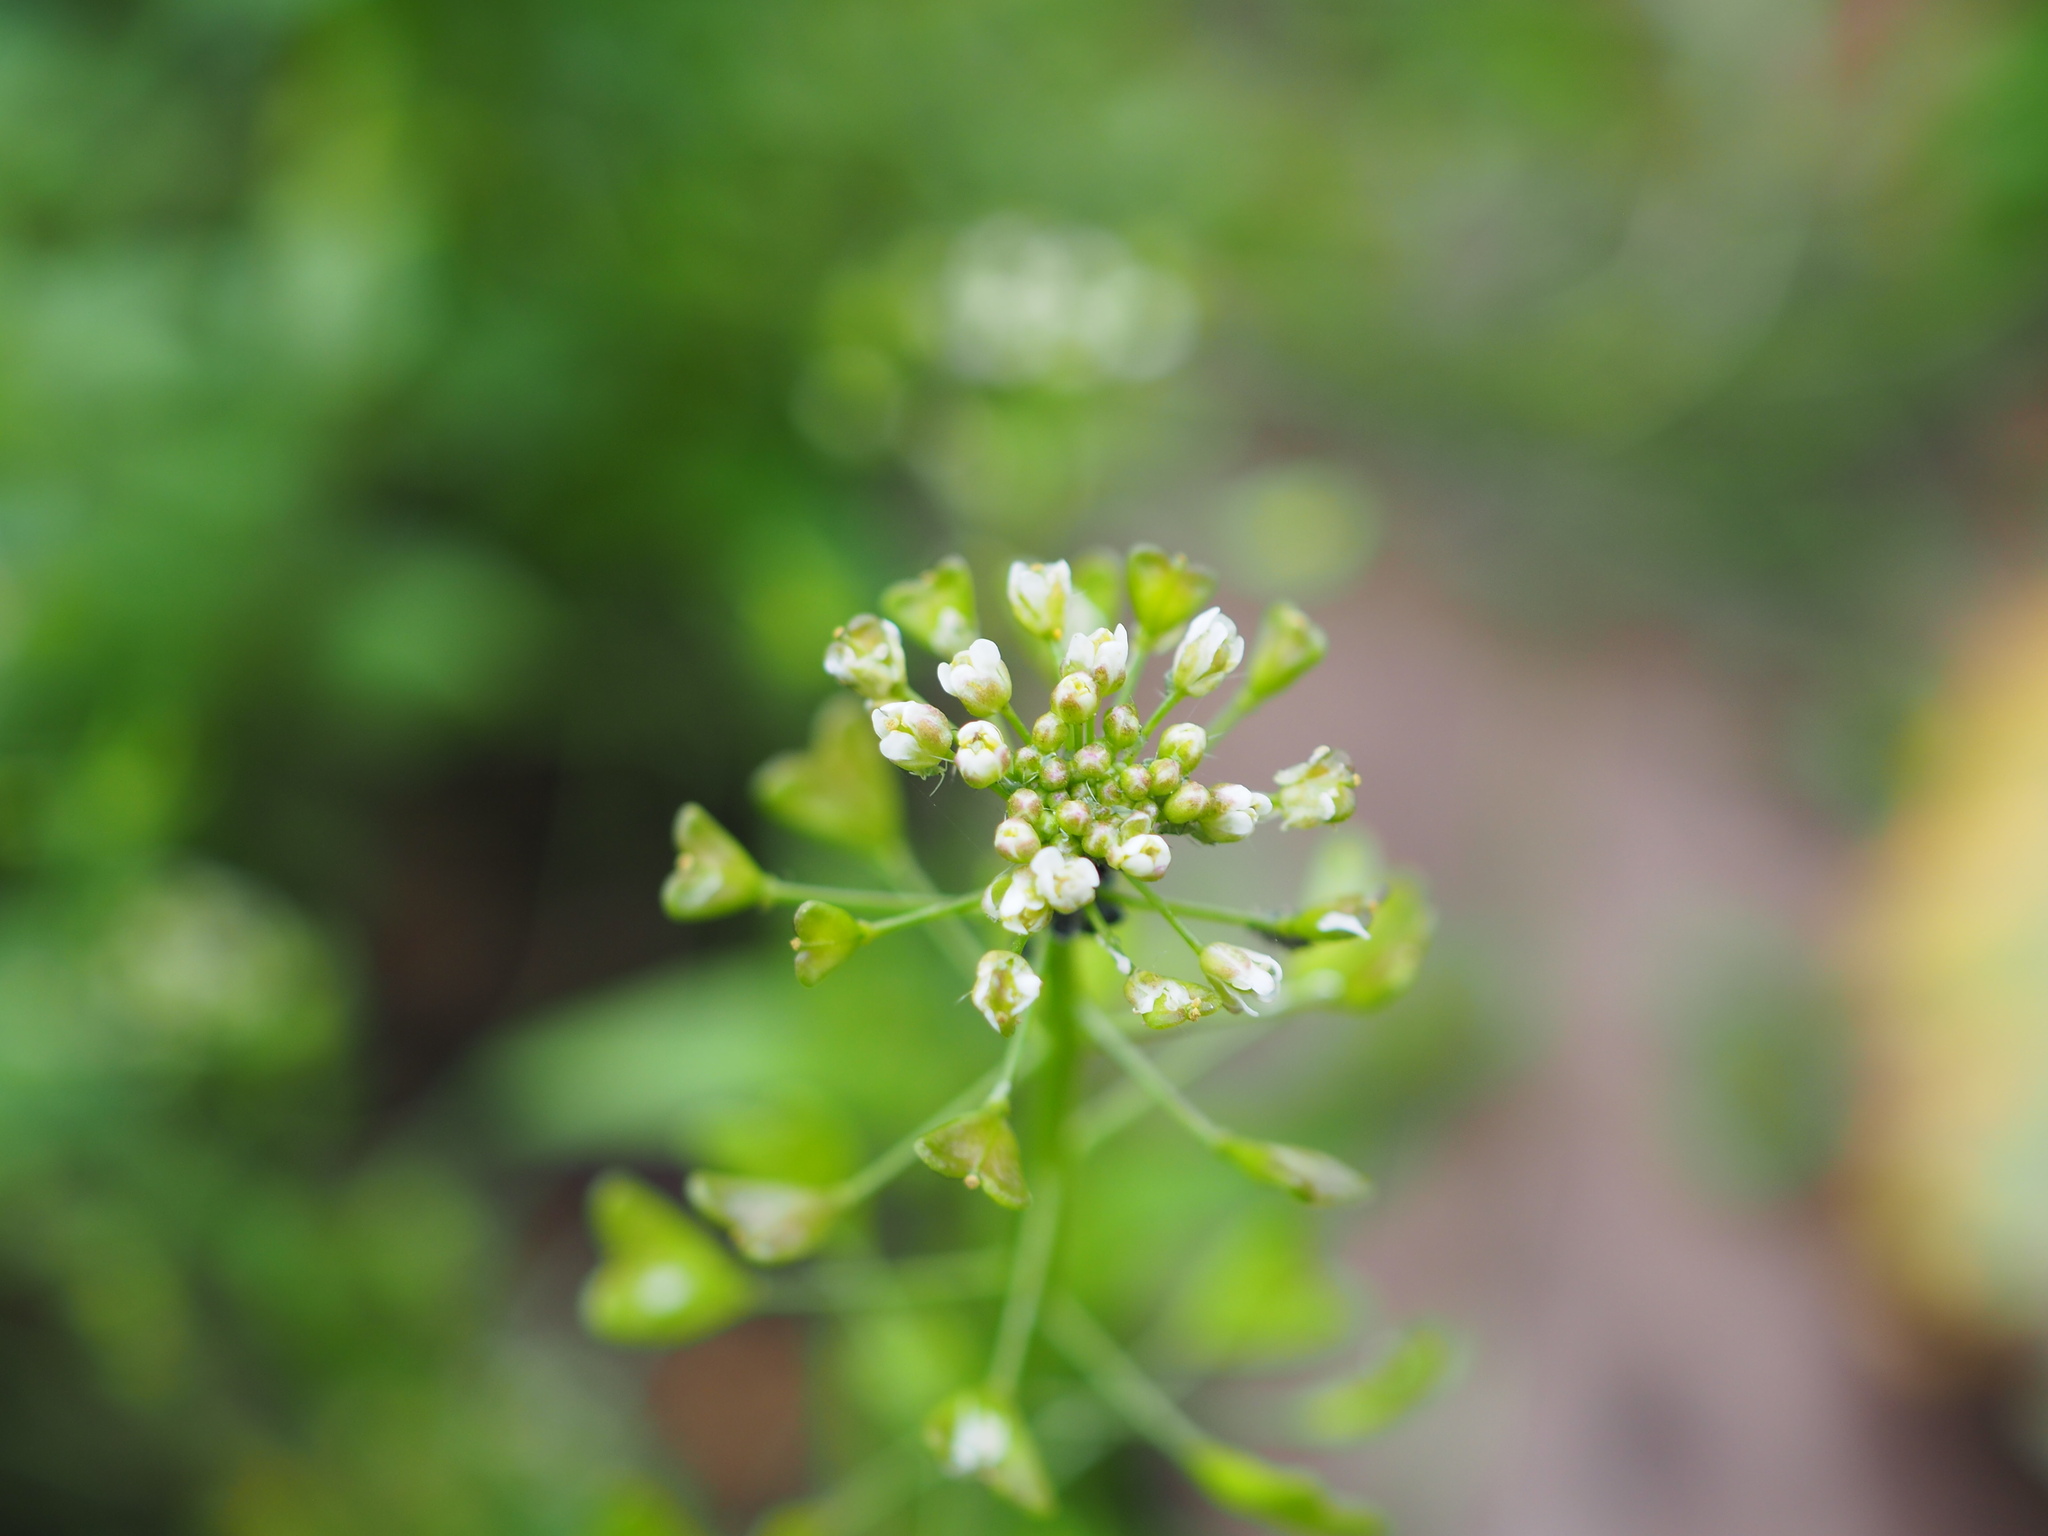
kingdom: Plantae
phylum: Tracheophyta
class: Magnoliopsida
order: Brassicales
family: Brassicaceae
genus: Capsella
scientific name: Capsella bursa-pastoris
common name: Shepherd's purse
